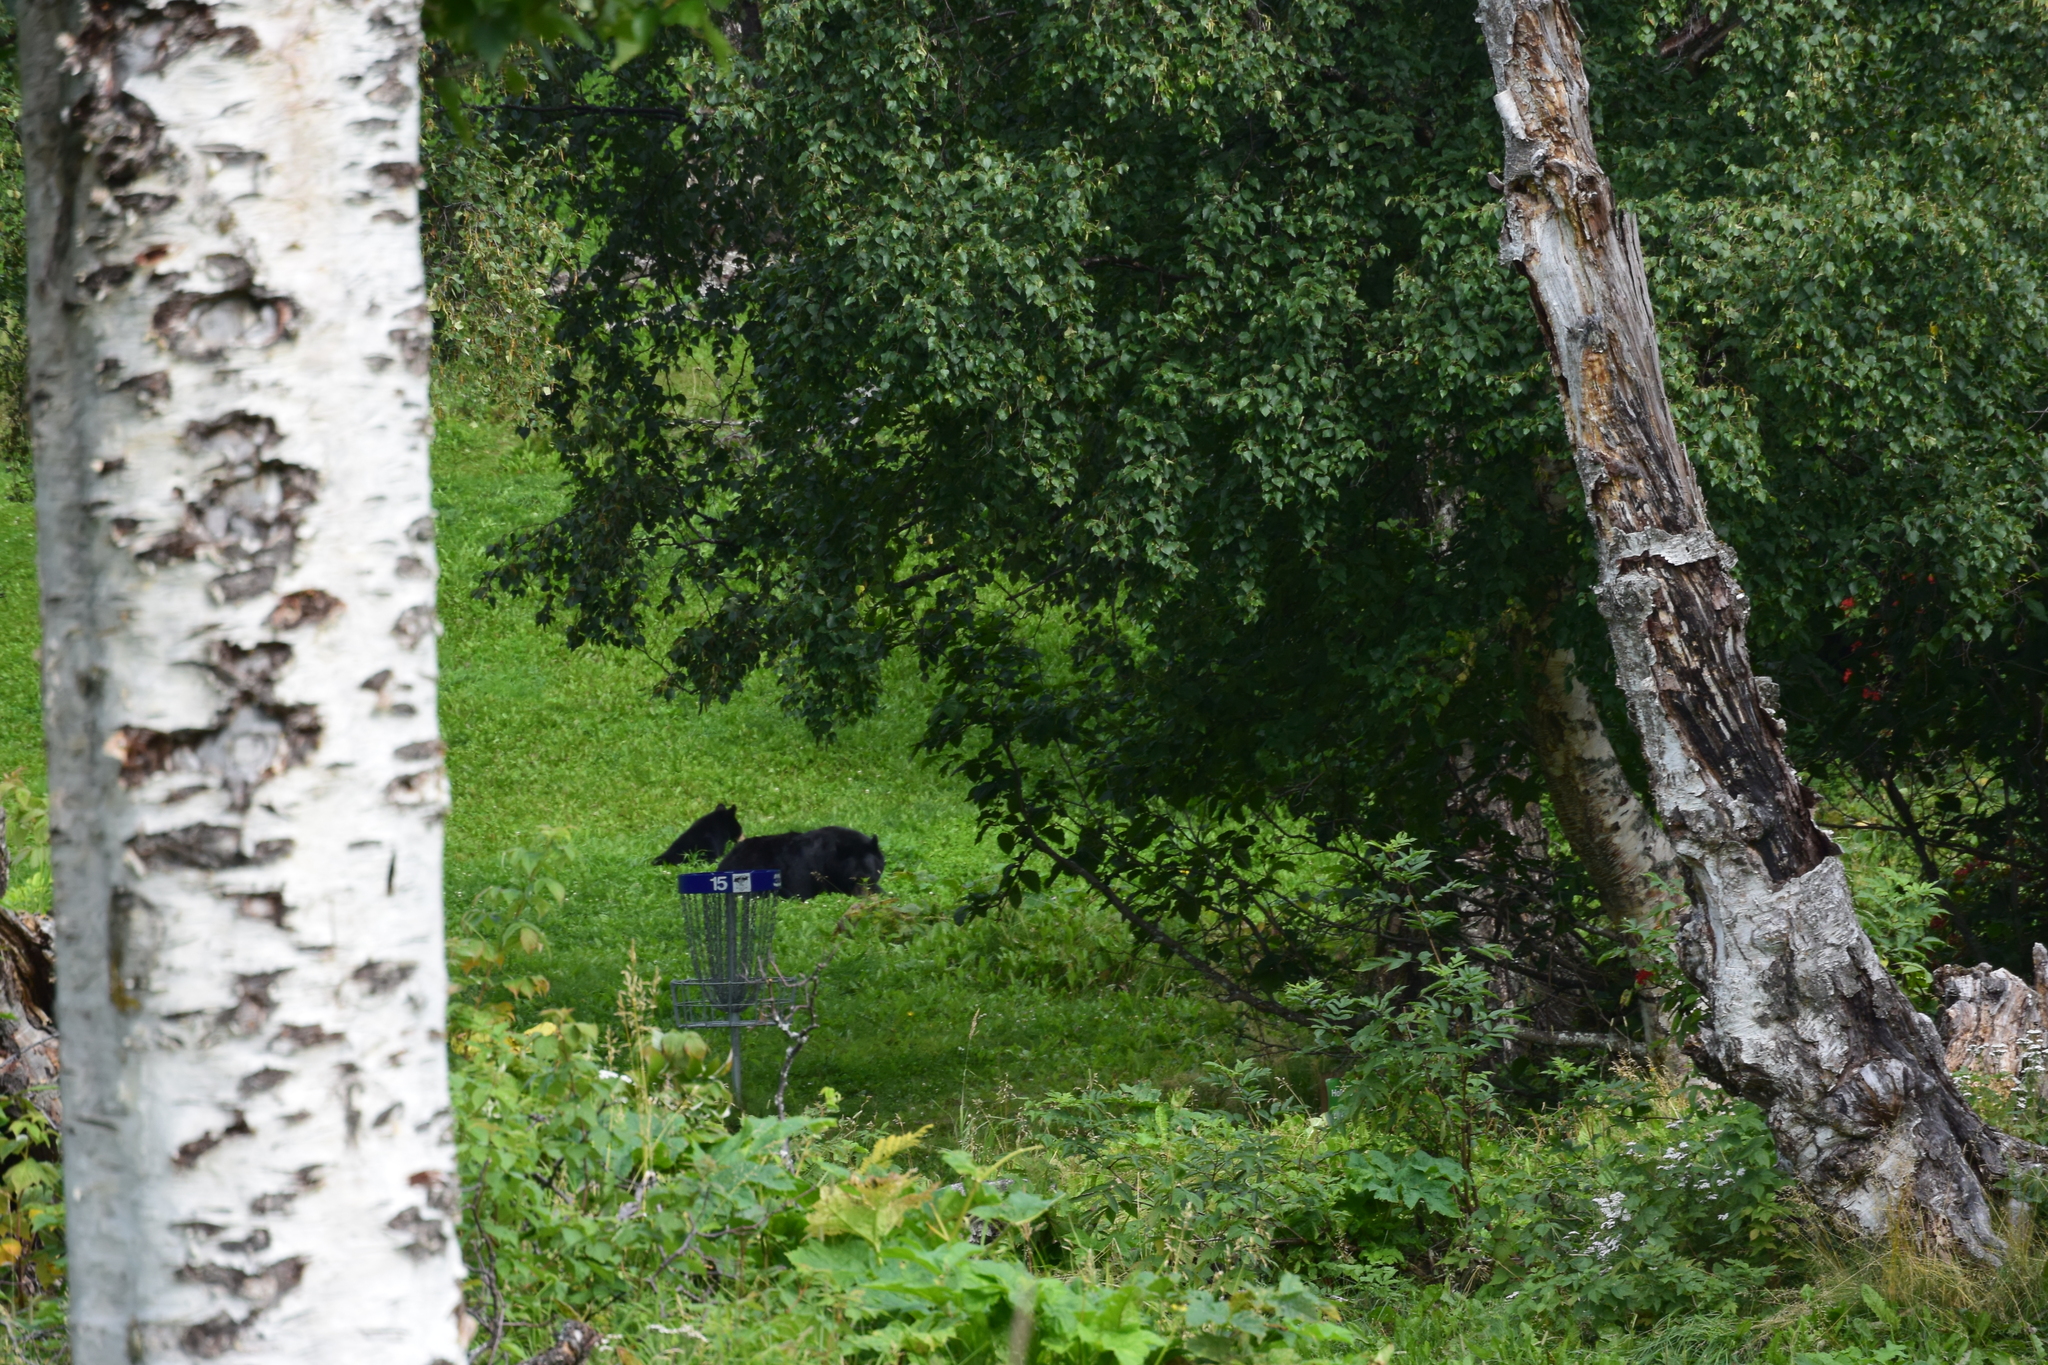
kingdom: Animalia
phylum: Chordata
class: Mammalia
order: Carnivora
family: Ursidae
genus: Ursus
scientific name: Ursus americanus
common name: American black bear
